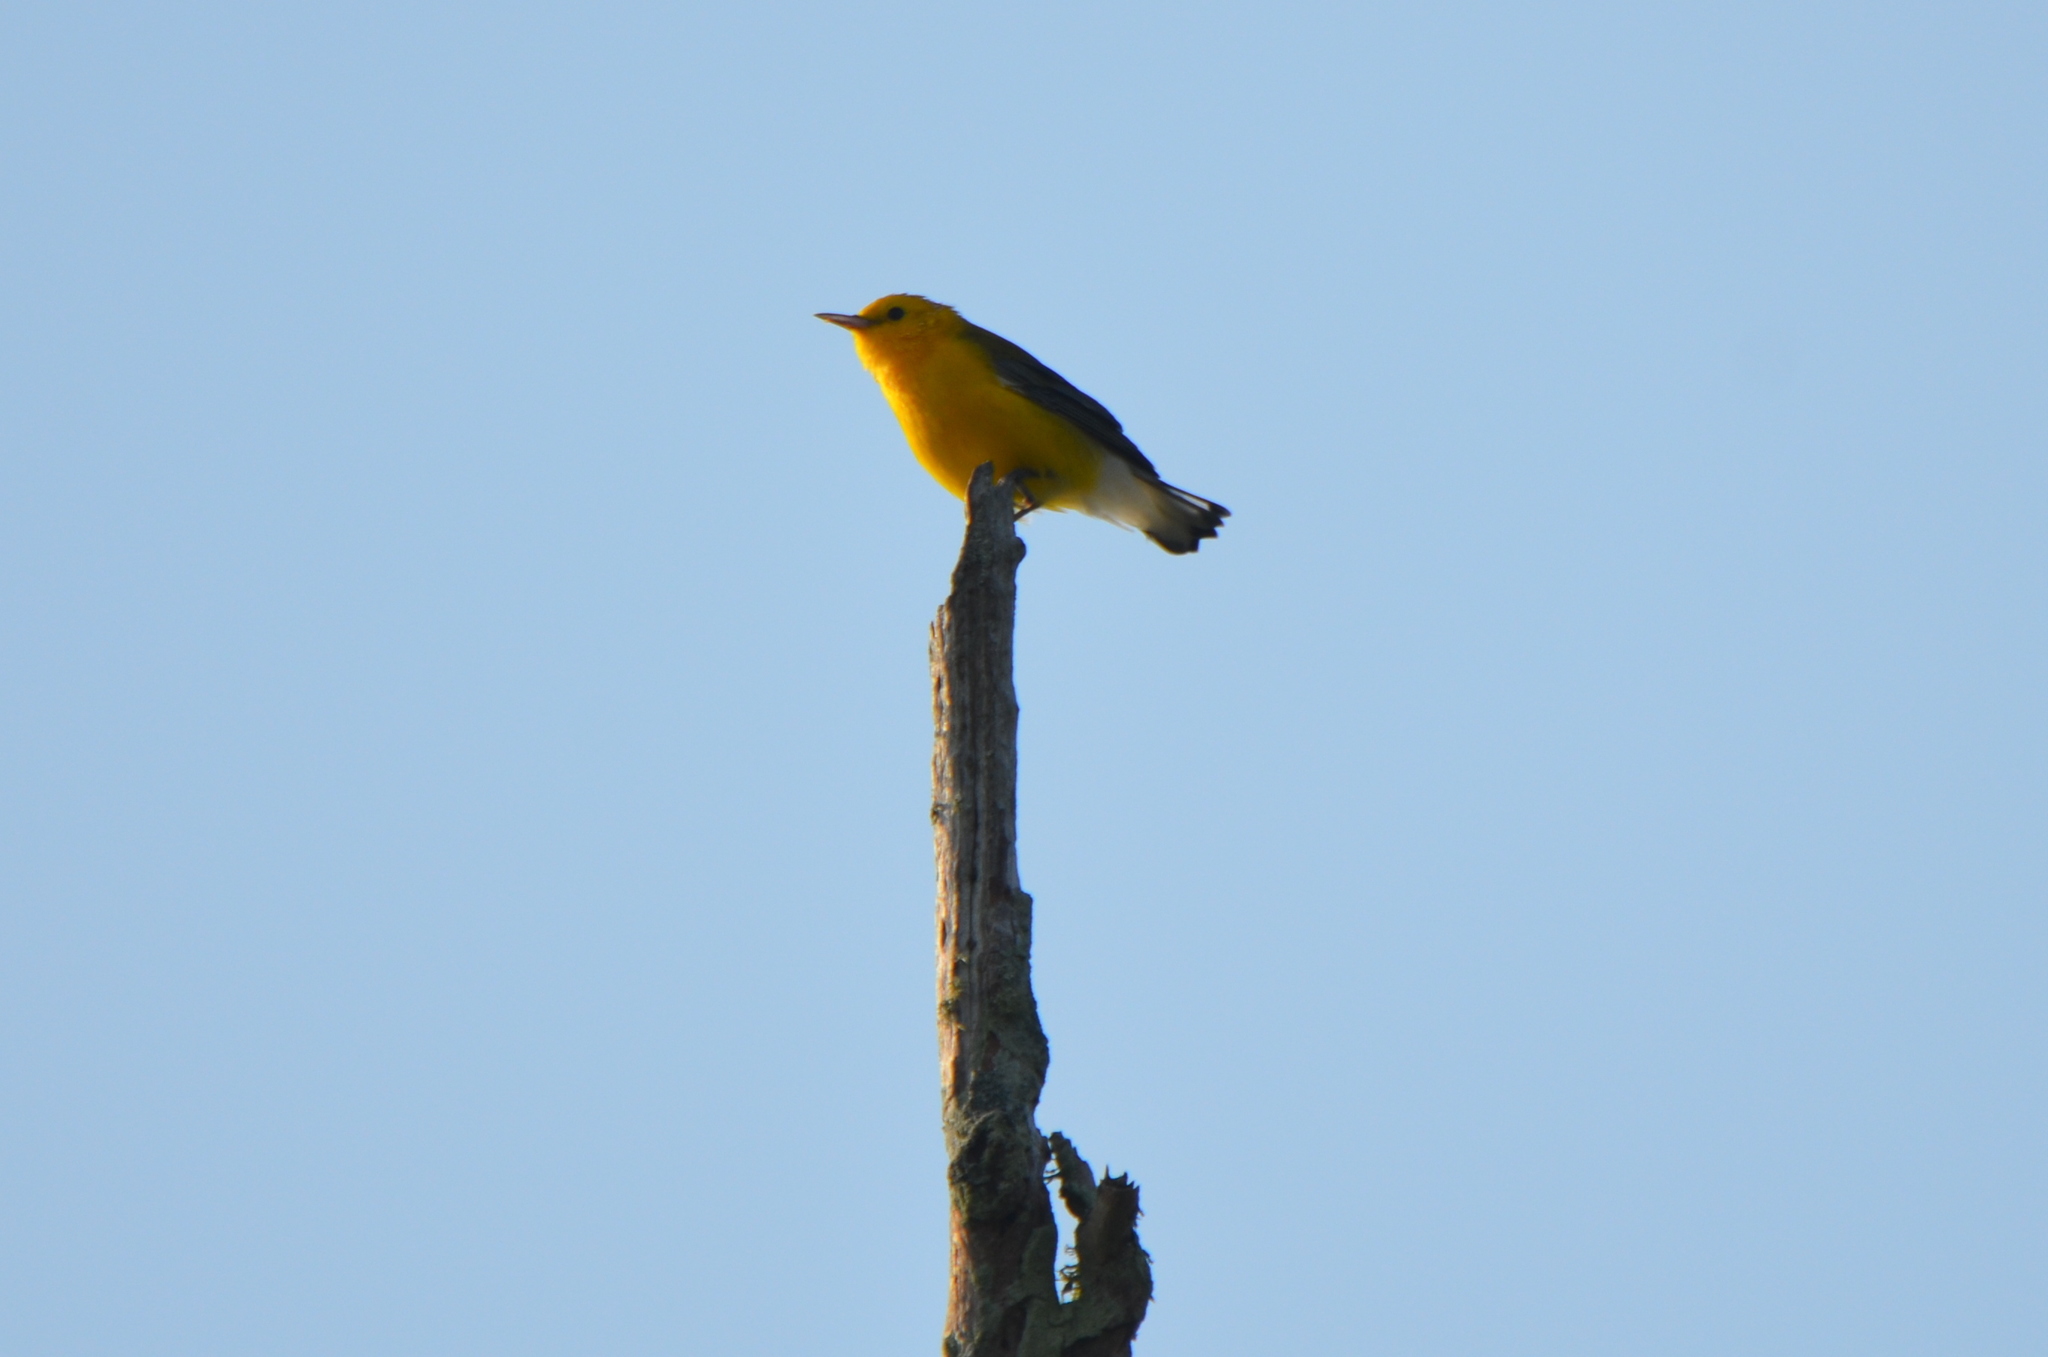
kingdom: Animalia
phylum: Chordata
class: Aves
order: Passeriformes
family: Parulidae
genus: Protonotaria
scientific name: Protonotaria citrea
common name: Prothonotary warbler
